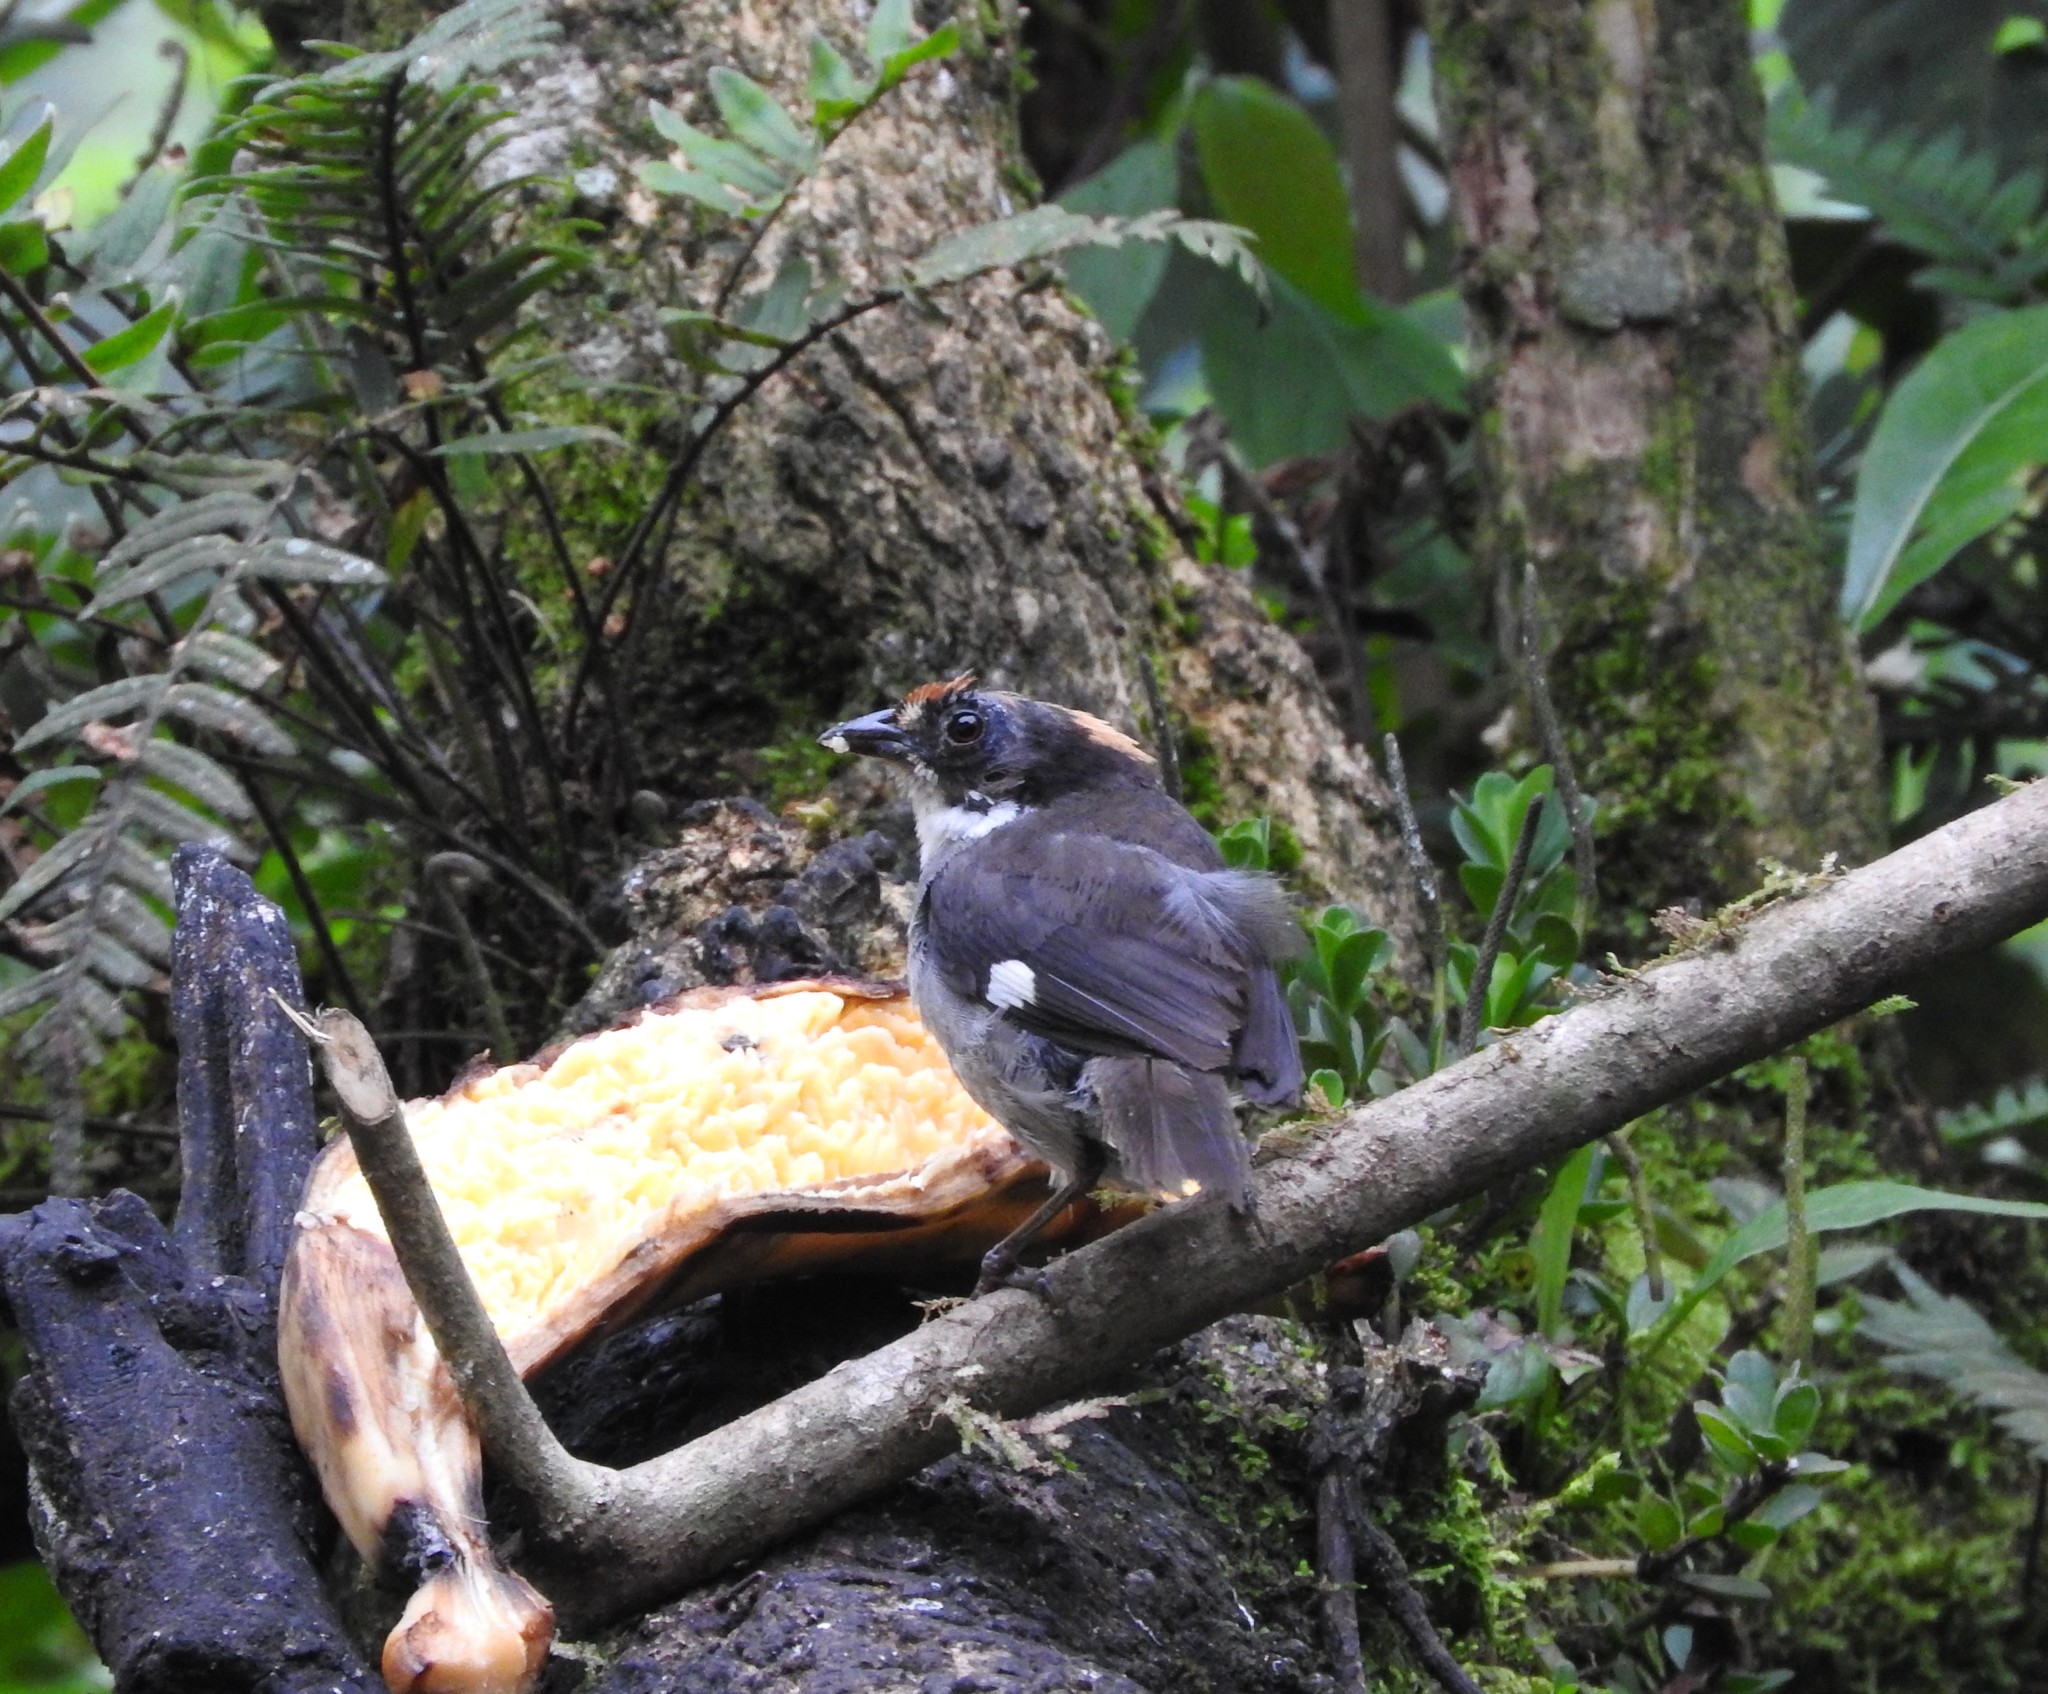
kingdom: Animalia
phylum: Chordata
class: Aves
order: Passeriformes
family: Passerellidae
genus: Atlapetes
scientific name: Atlapetes leucopterus
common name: White-winged brushfinch
